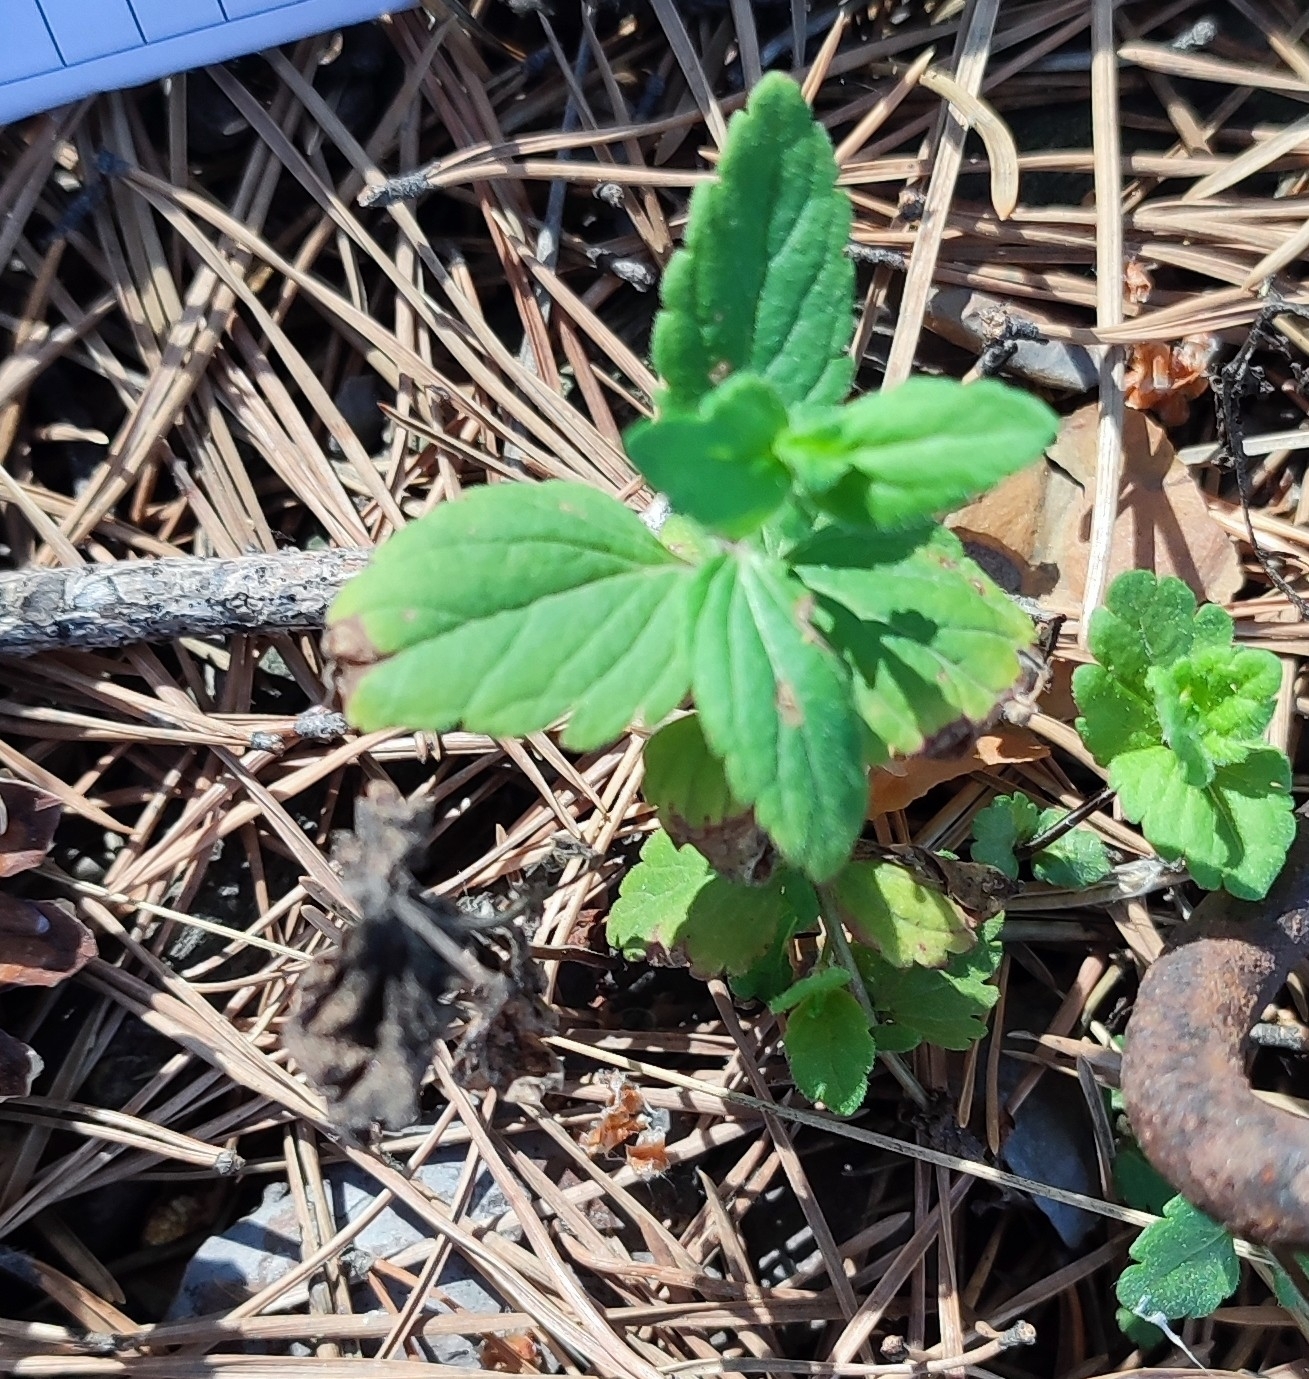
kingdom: Plantae
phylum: Tracheophyta
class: Magnoliopsida
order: Lamiales
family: Lamiaceae
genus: Dracocephalum
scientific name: Dracocephalum thymiflorum
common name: Thymeleaf dragonhead
